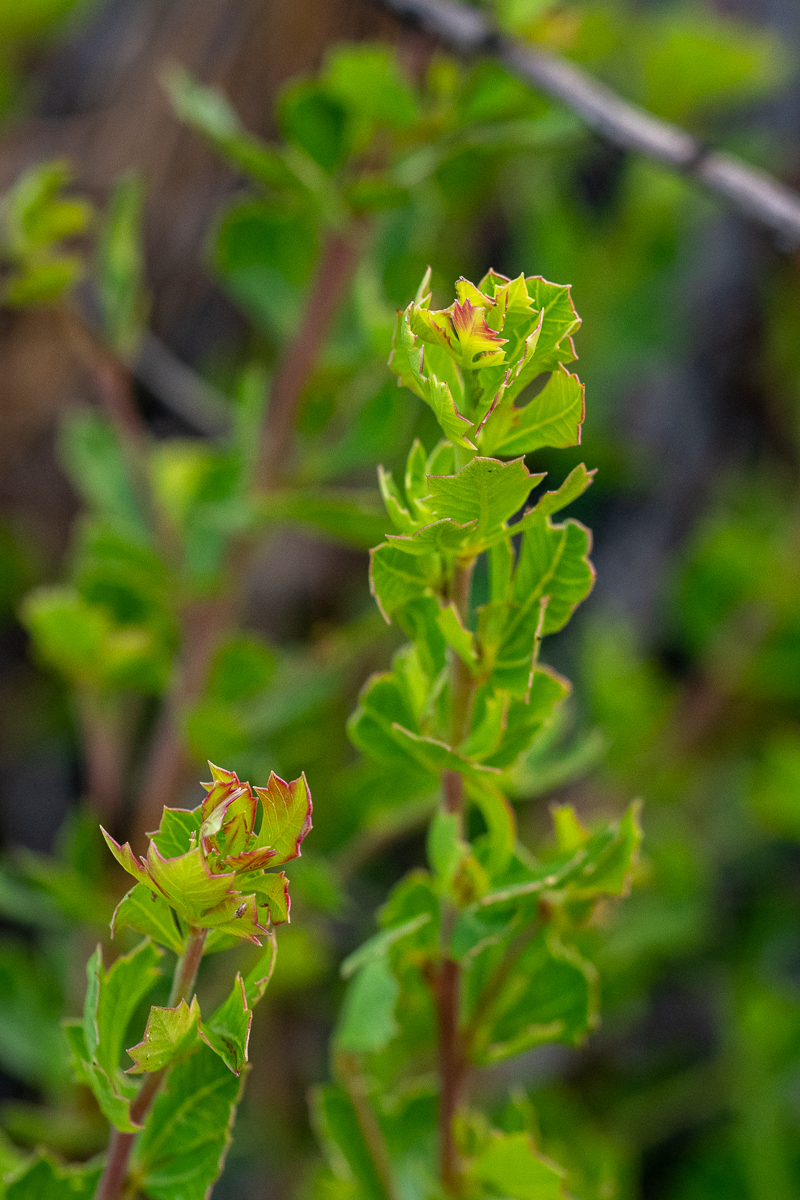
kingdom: Plantae
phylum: Tracheophyta
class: Magnoliopsida
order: Sapindales
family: Anacardiaceae
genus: Searsia
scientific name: Searsia cuneifolia
